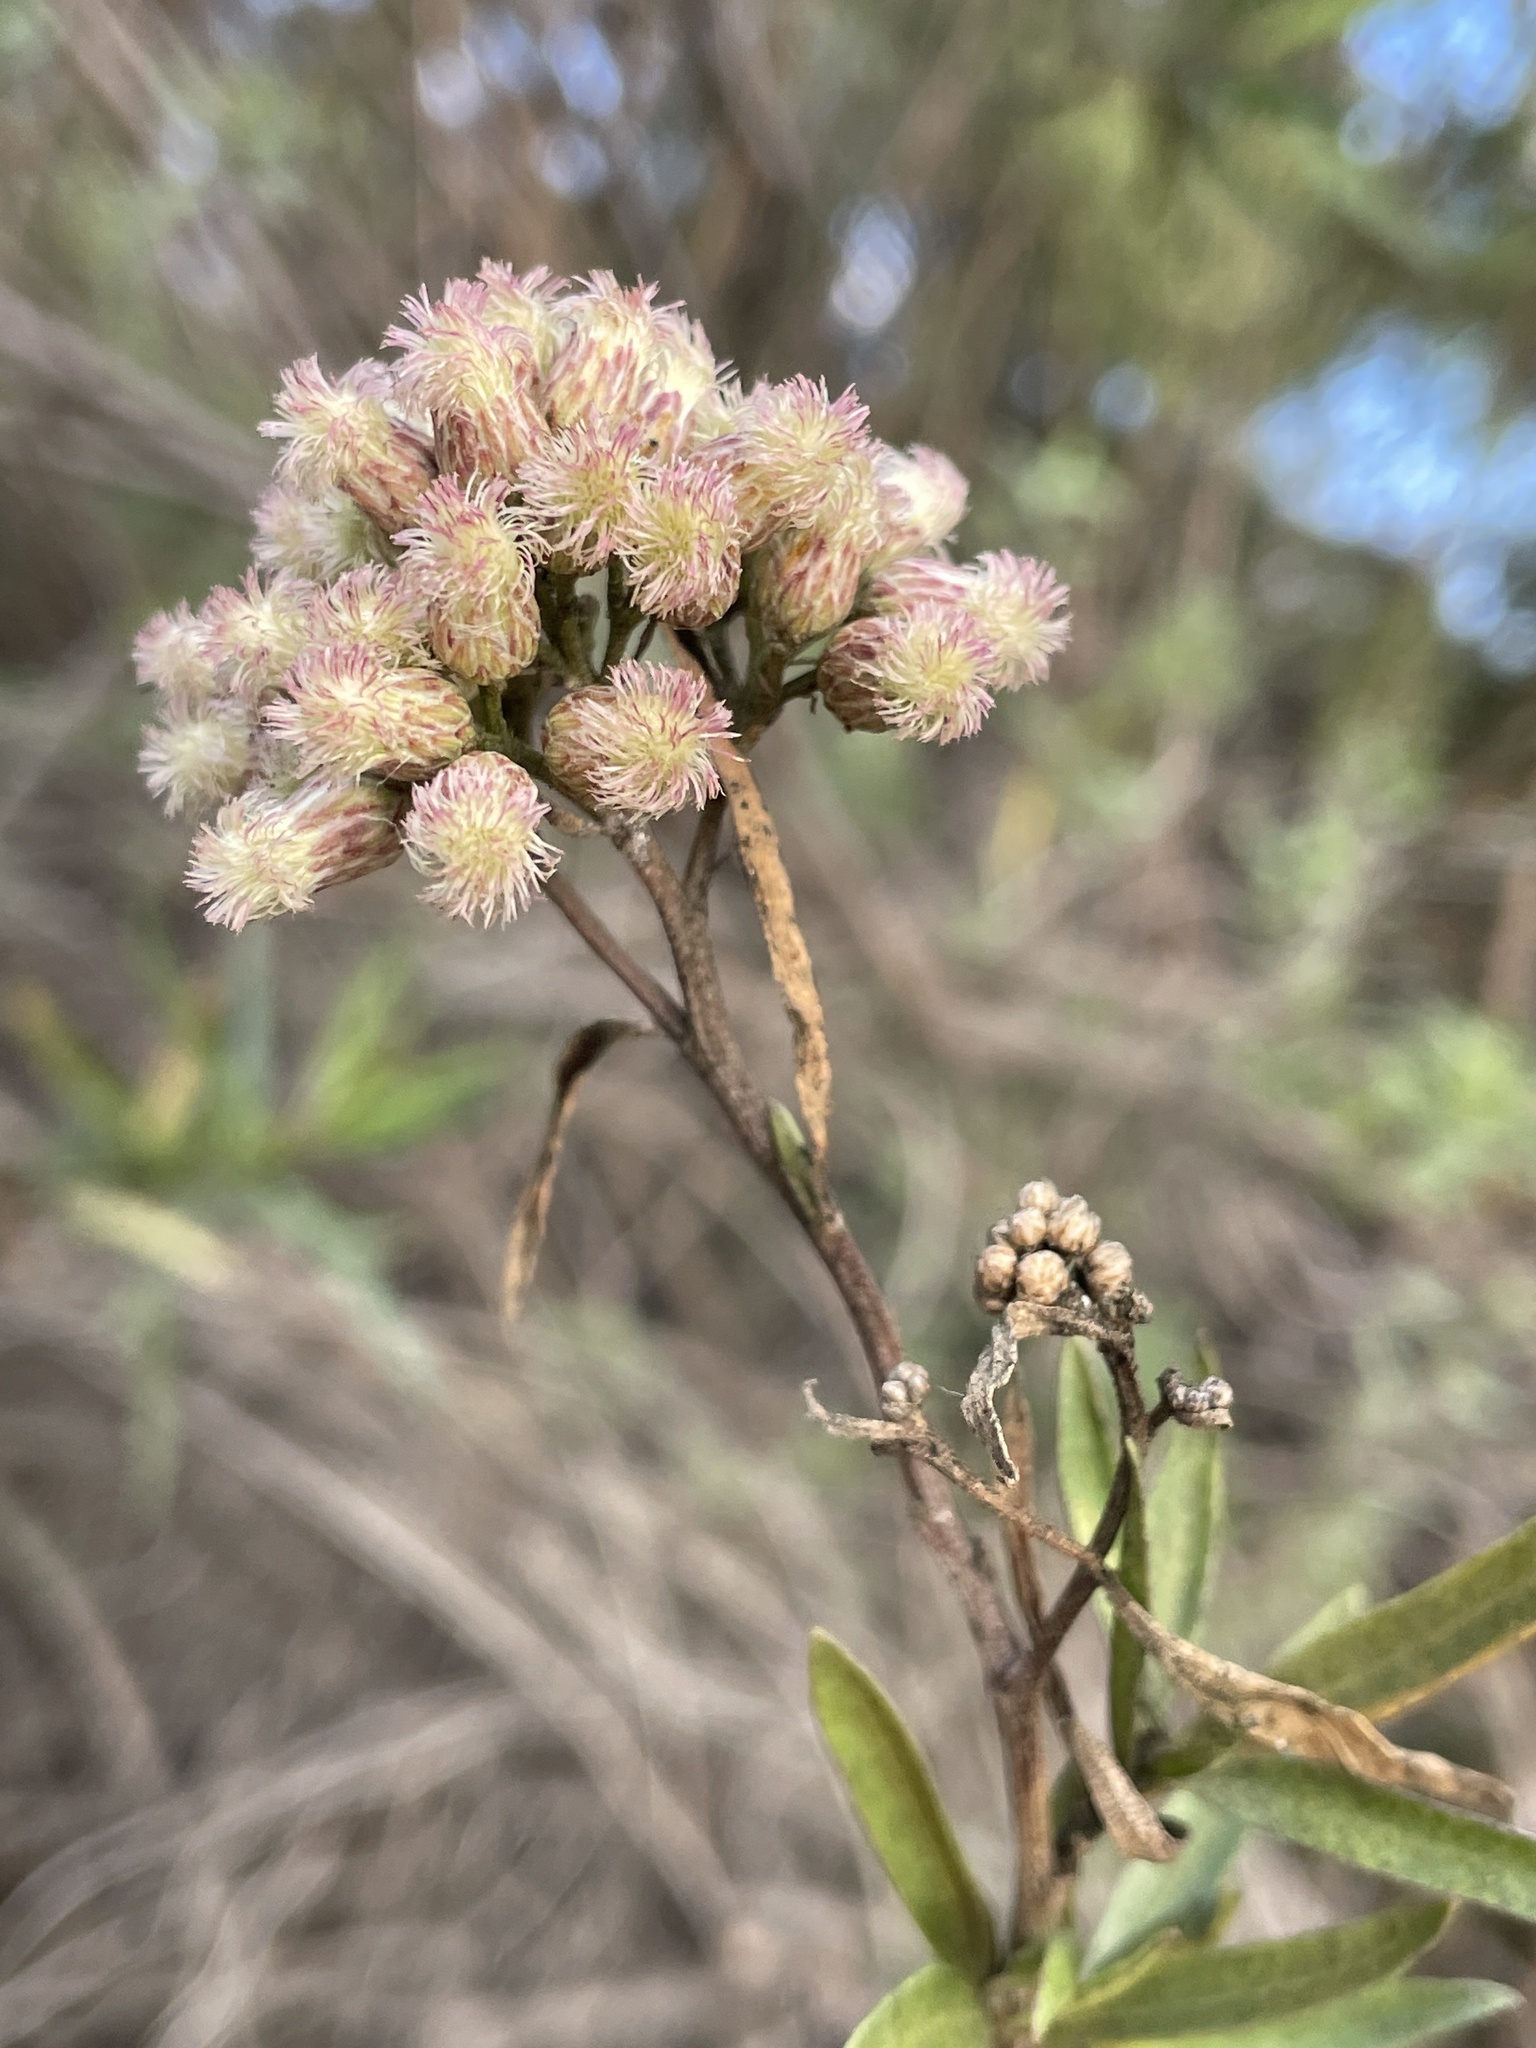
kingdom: Plantae
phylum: Tracheophyta
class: Magnoliopsida
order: Asterales
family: Asteraceae
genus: Baccharis
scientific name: Baccharis salicifolia
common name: Sticky baccharis
